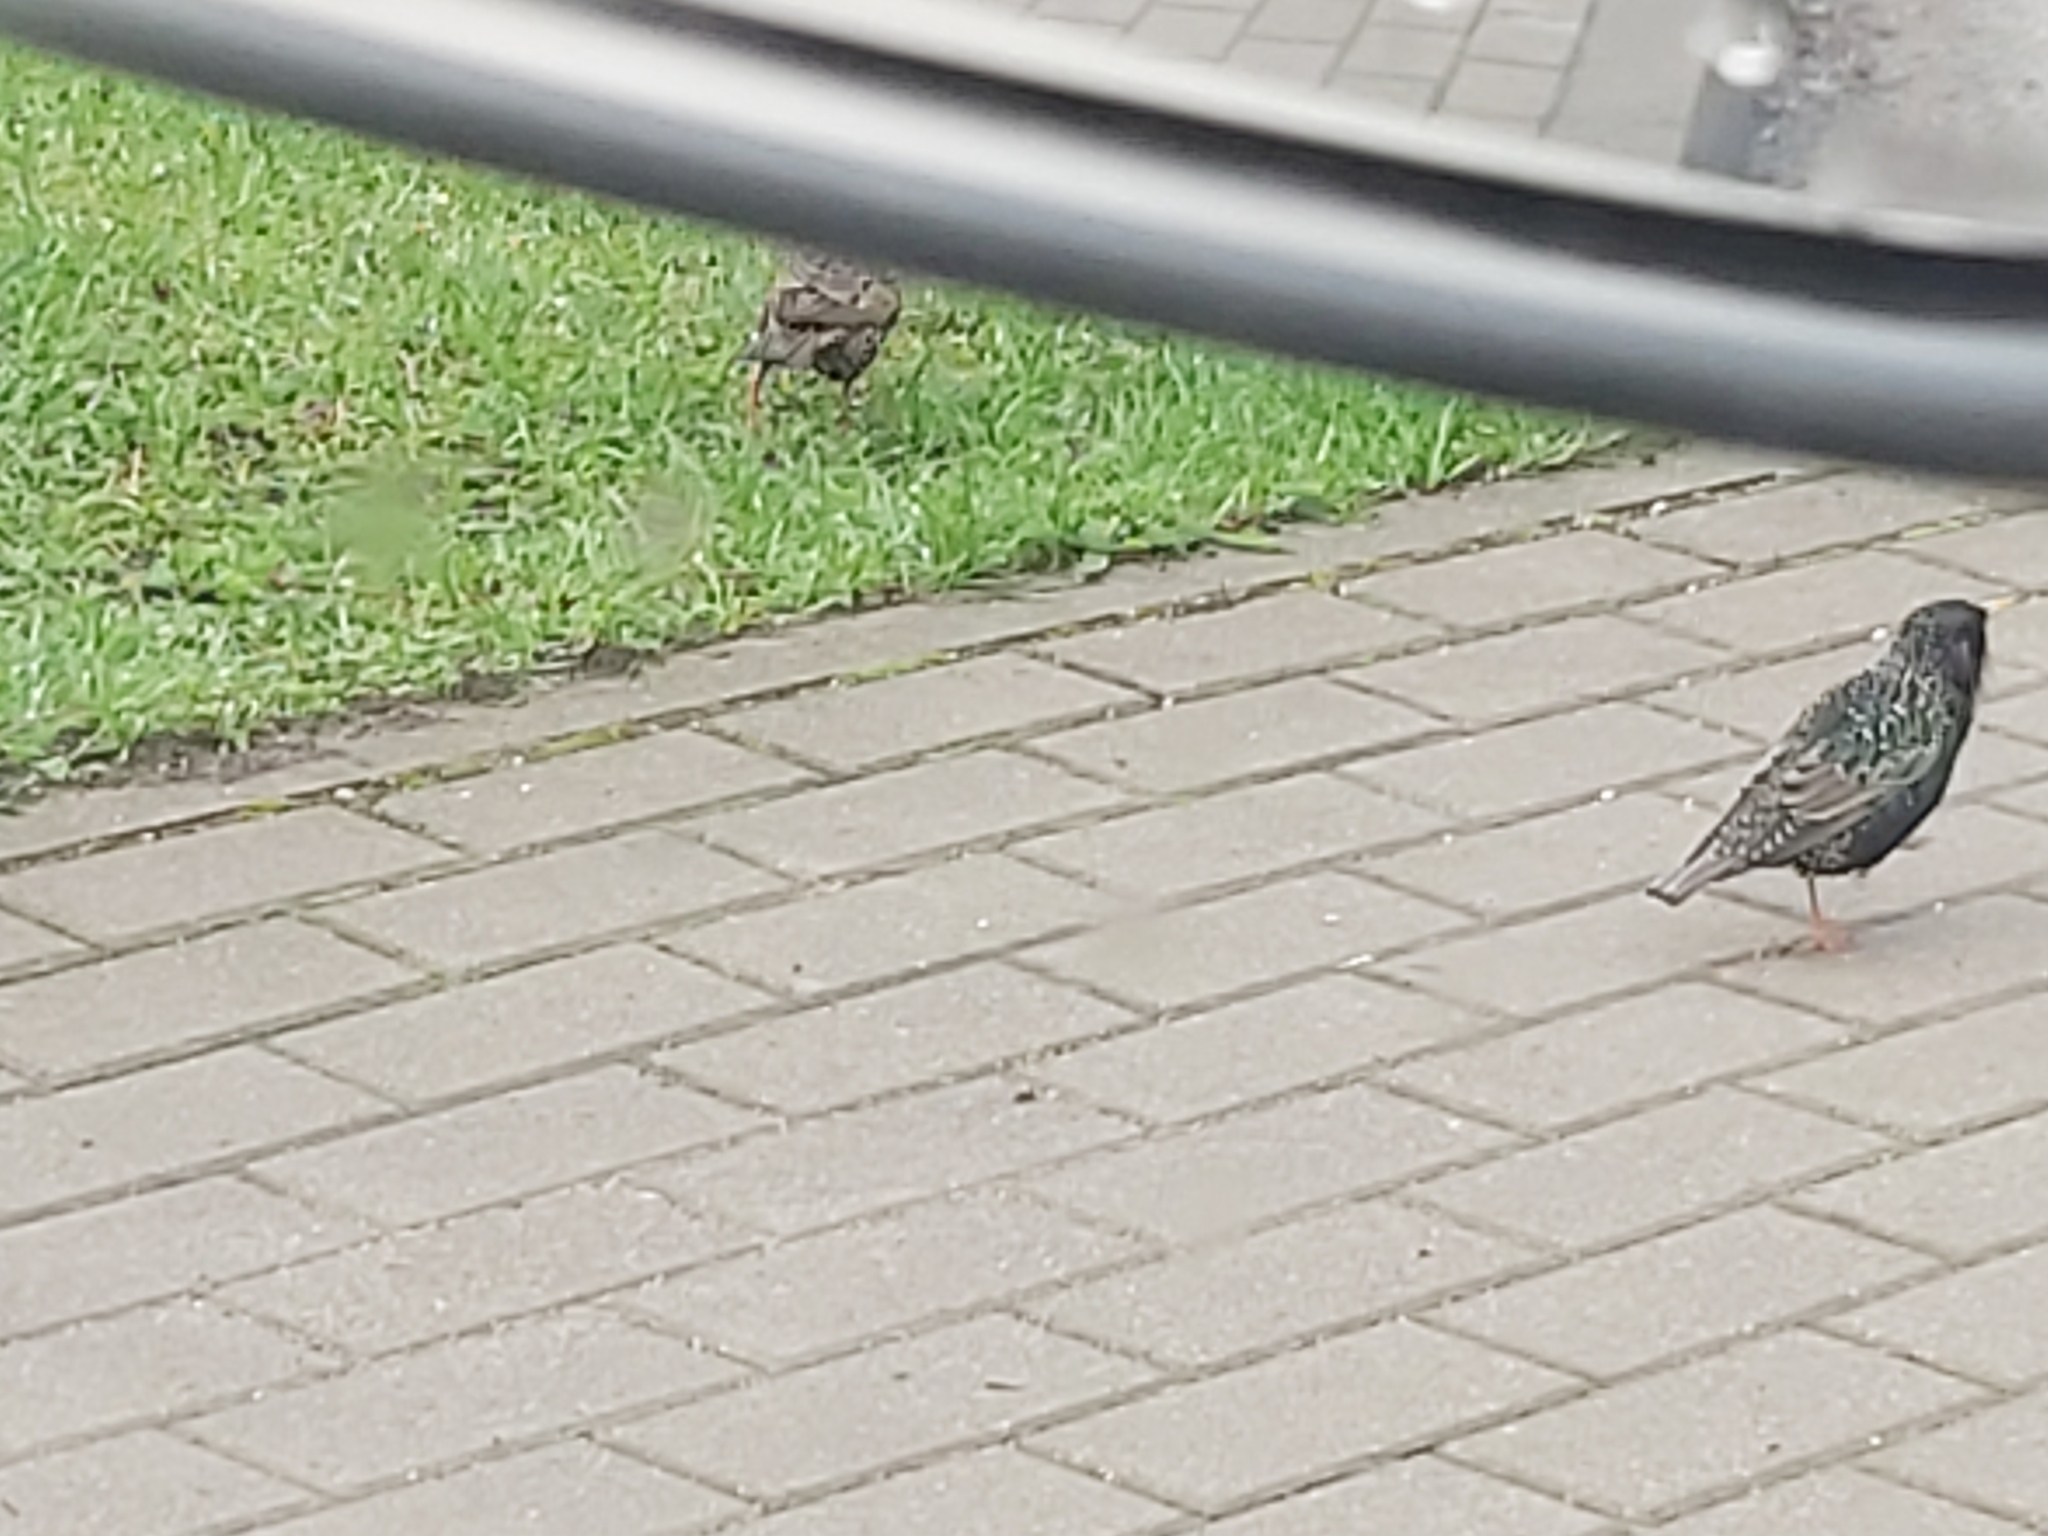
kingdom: Animalia
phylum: Chordata
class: Aves
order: Passeriformes
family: Sturnidae
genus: Sturnus
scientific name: Sturnus vulgaris
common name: Common starling
